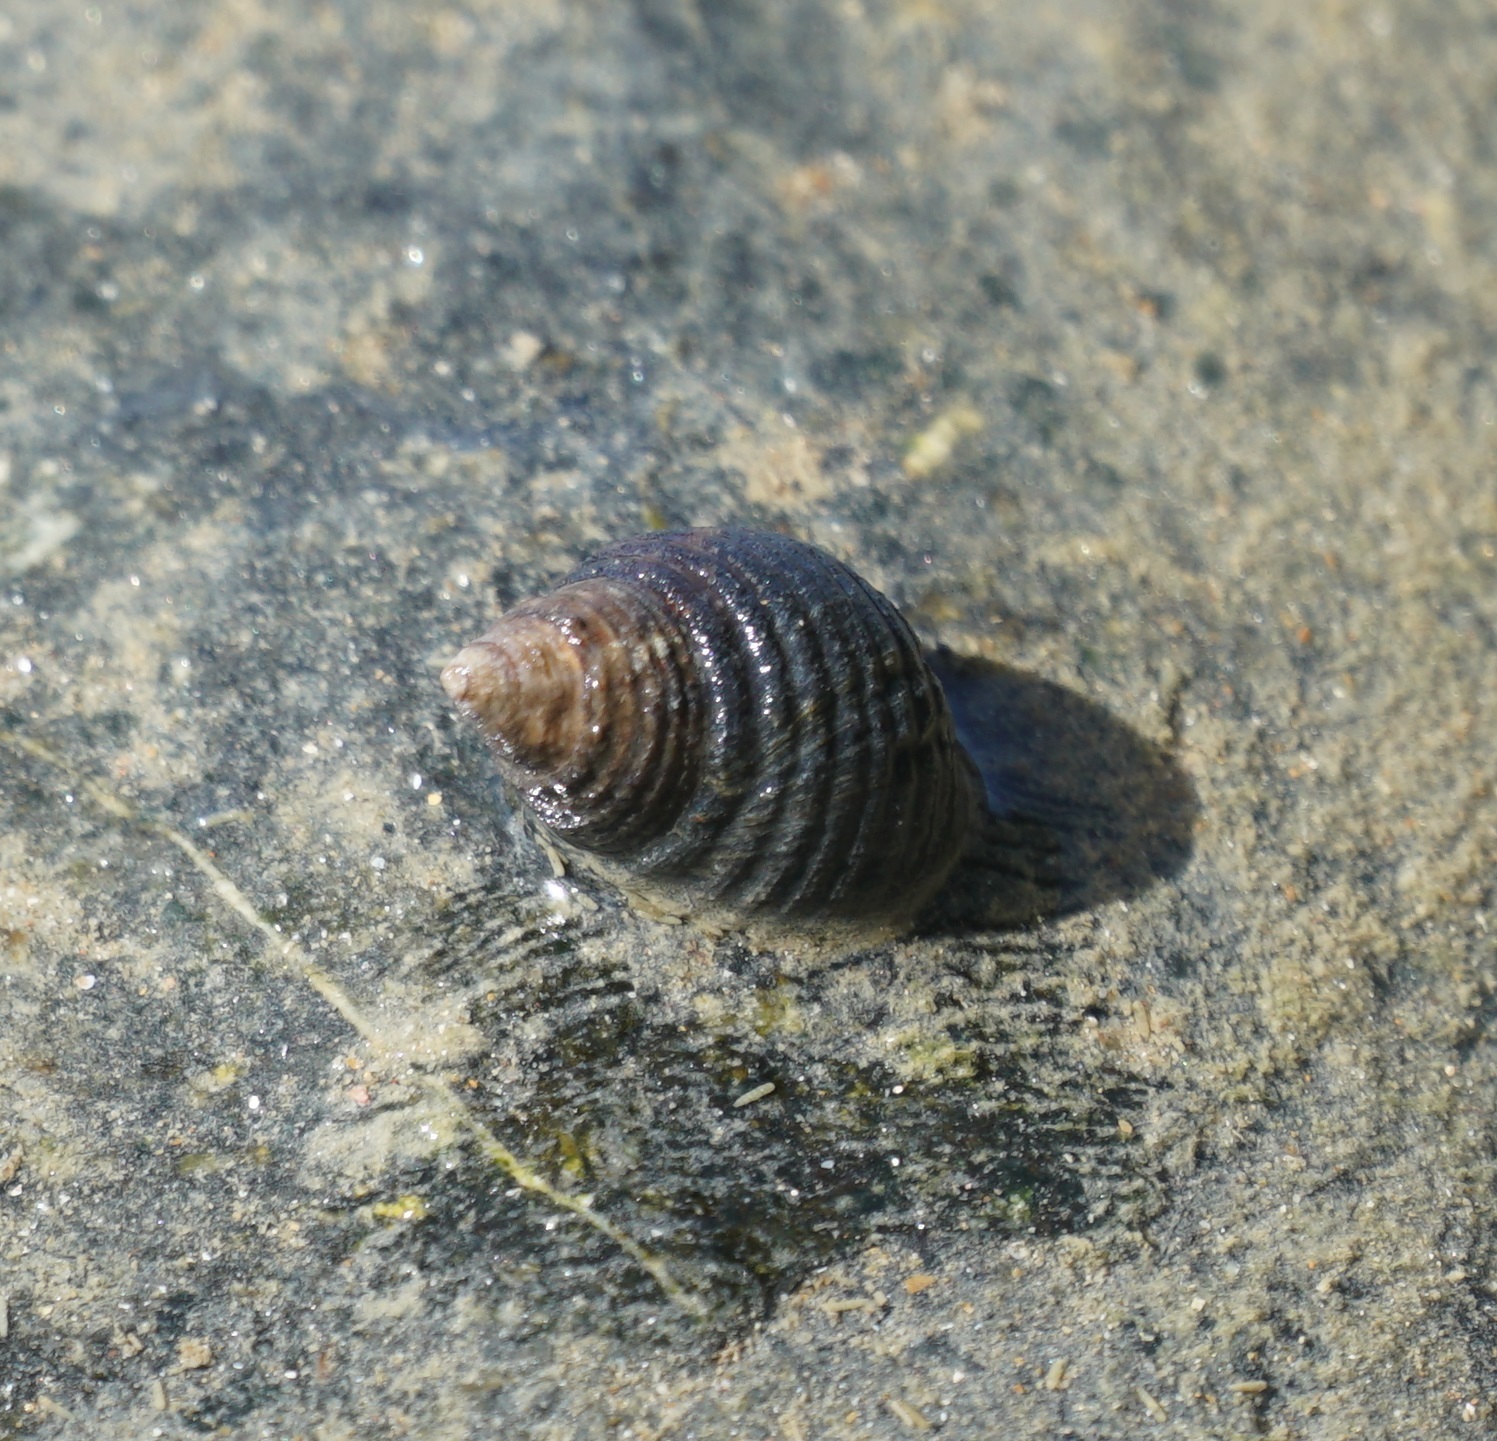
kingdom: Animalia
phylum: Mollusca
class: Gastropoda
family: Planaxidae
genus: Planaxis
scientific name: Planaxis sulcatus
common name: Furrowed planaxis
